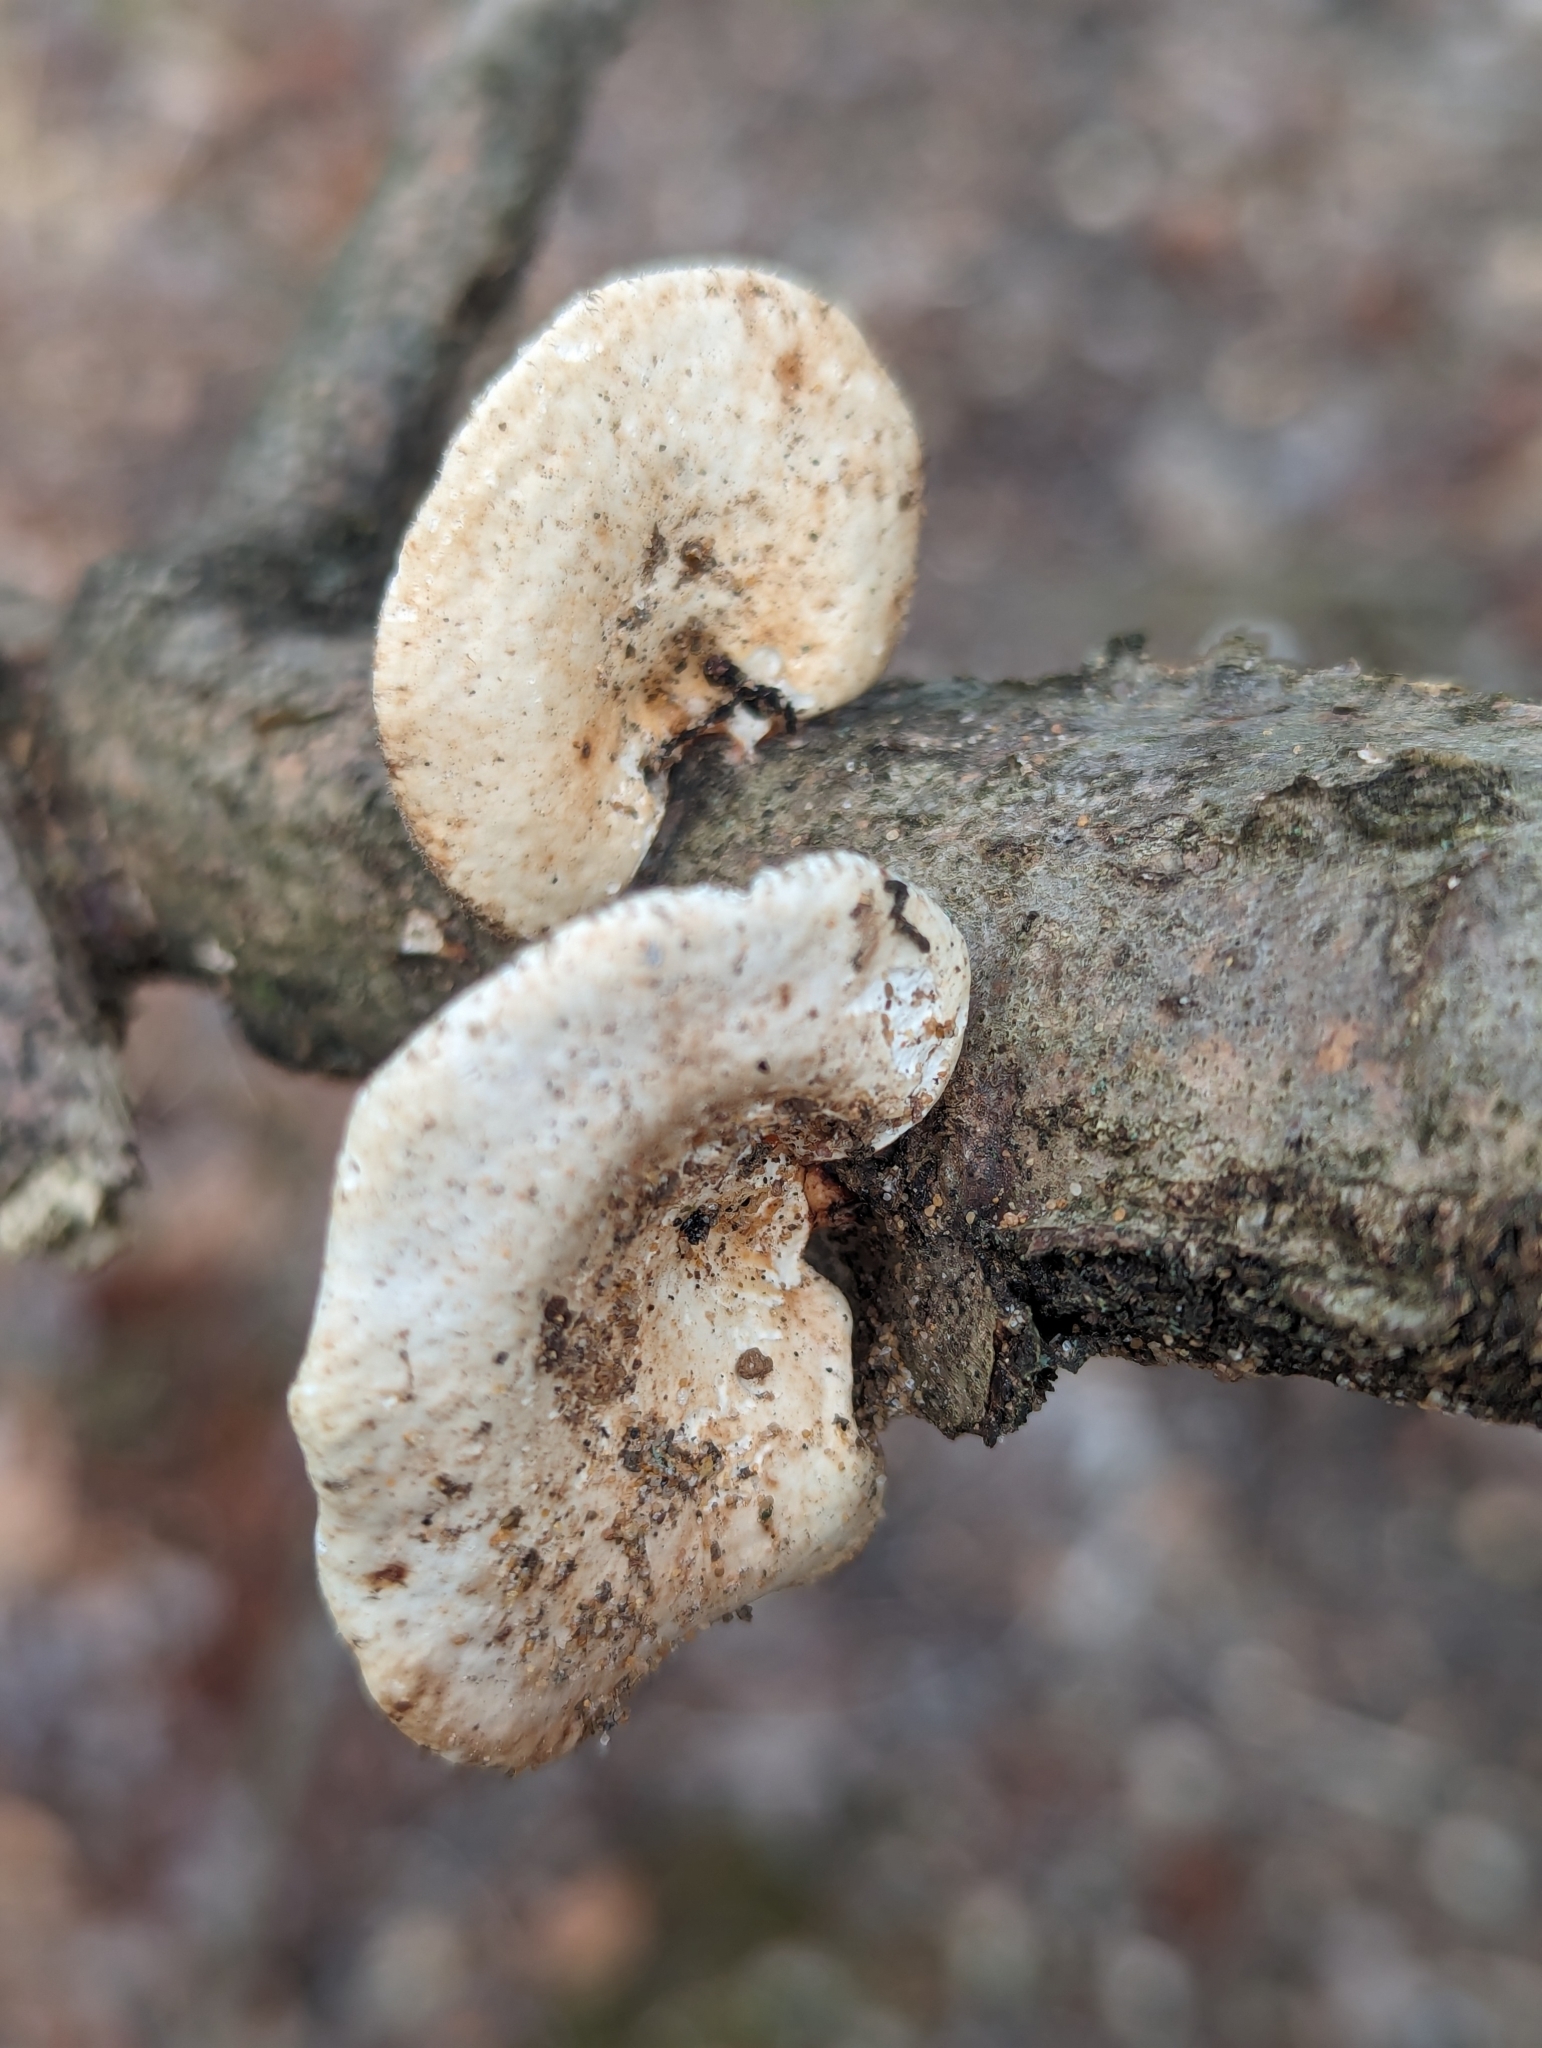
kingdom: Fungi
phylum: Basidiomycota
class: Agaricomycetes
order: Polyporales
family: Polyporaceae
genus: Neofavolus
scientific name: Neofavolus americanus
